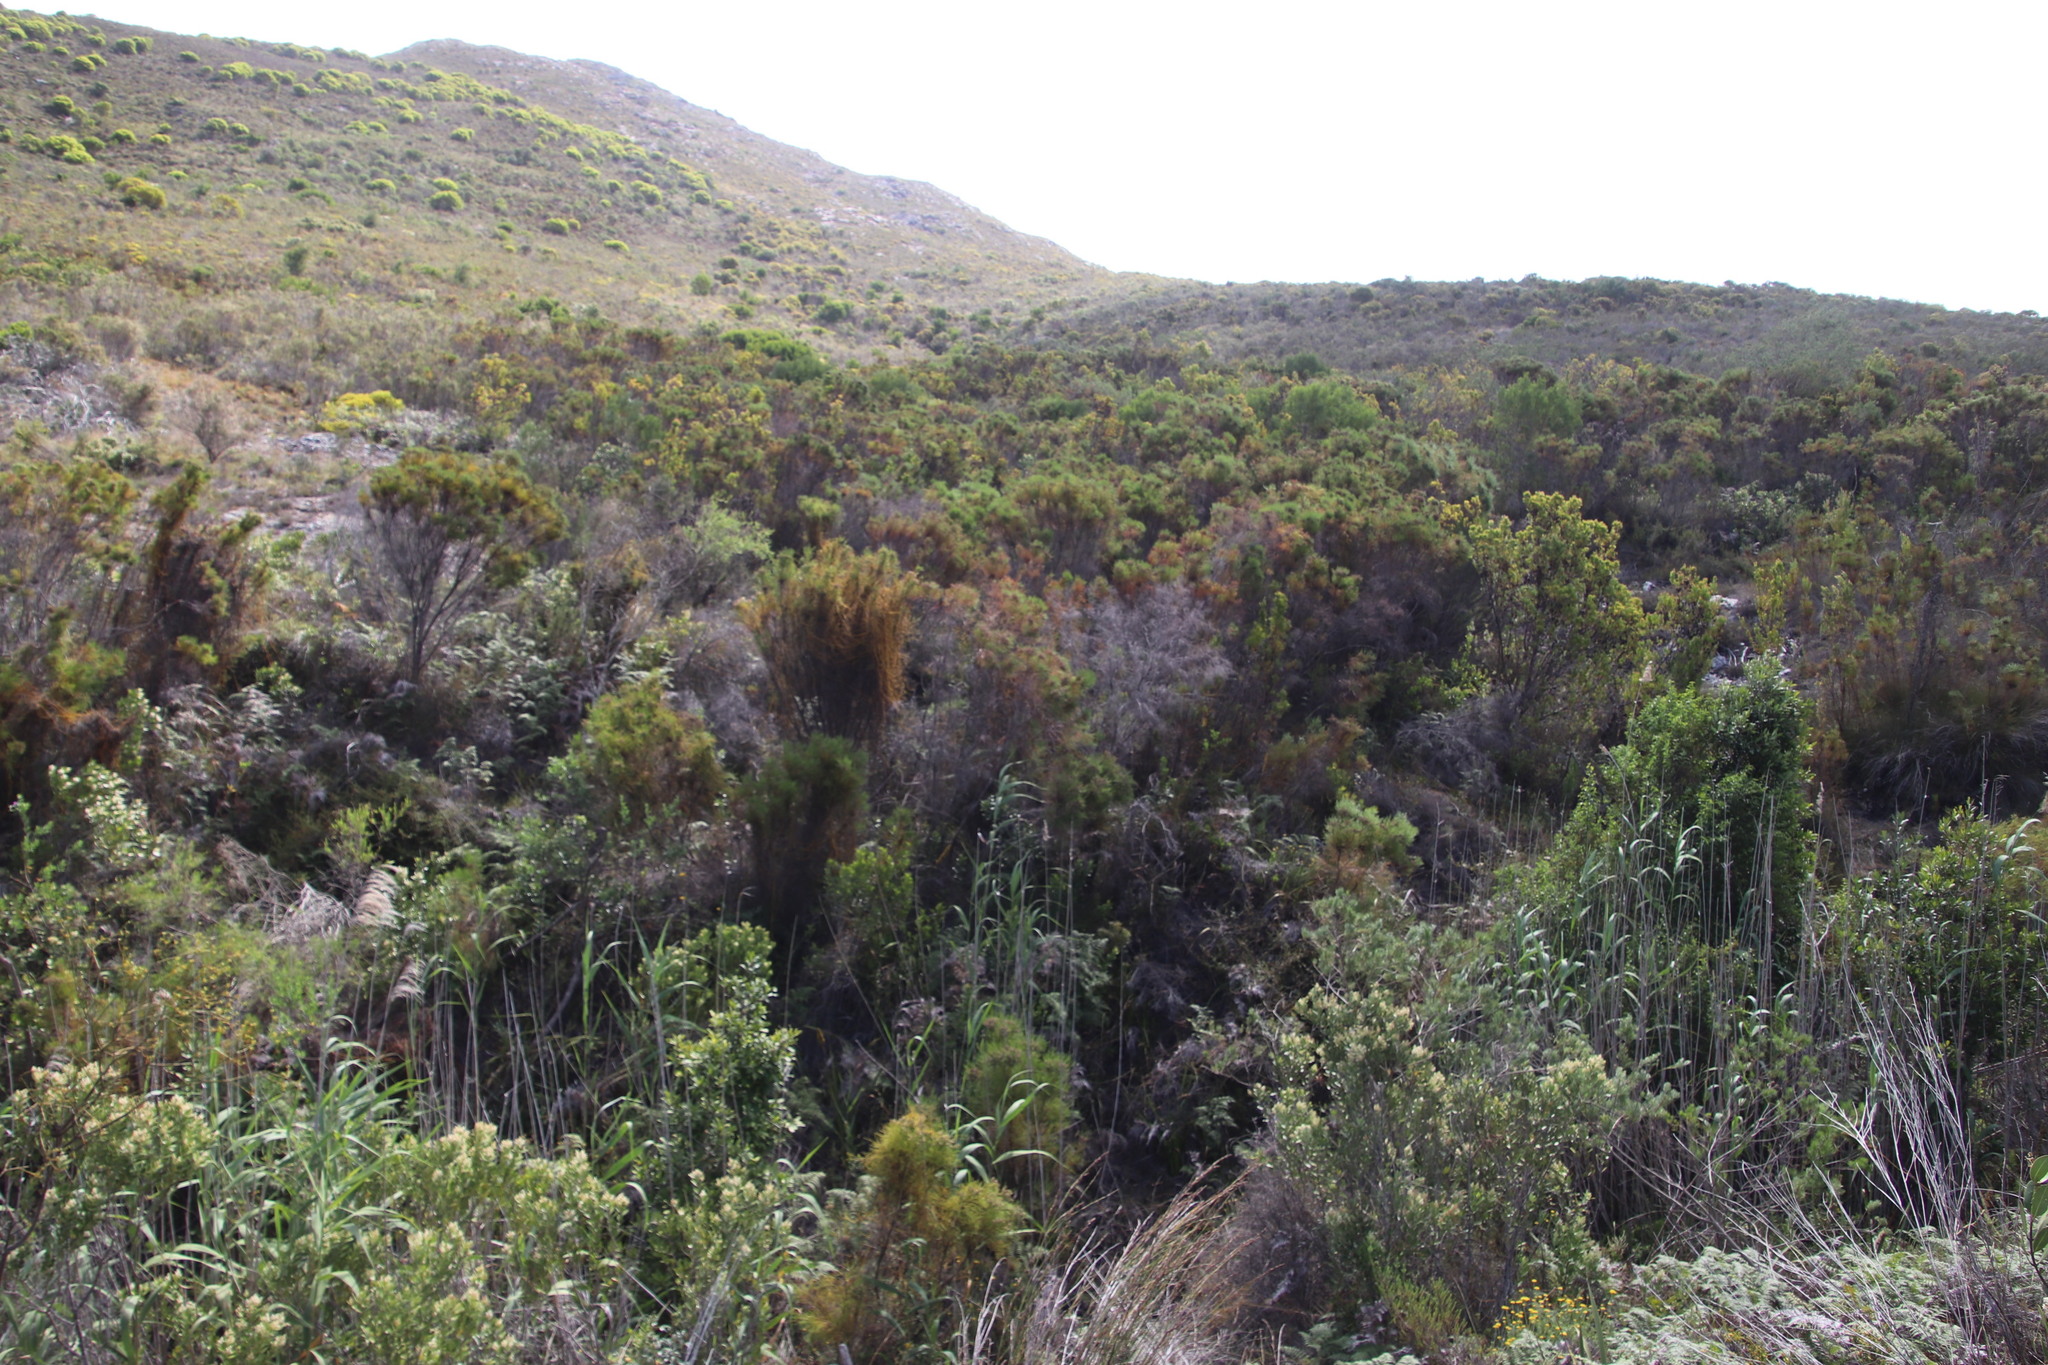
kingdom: Plantae
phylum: Tracheophyta
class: Magnoliopsida
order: Bruniales
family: Bruniaceae
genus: Berzelia
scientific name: Berzelia lanuginosa
